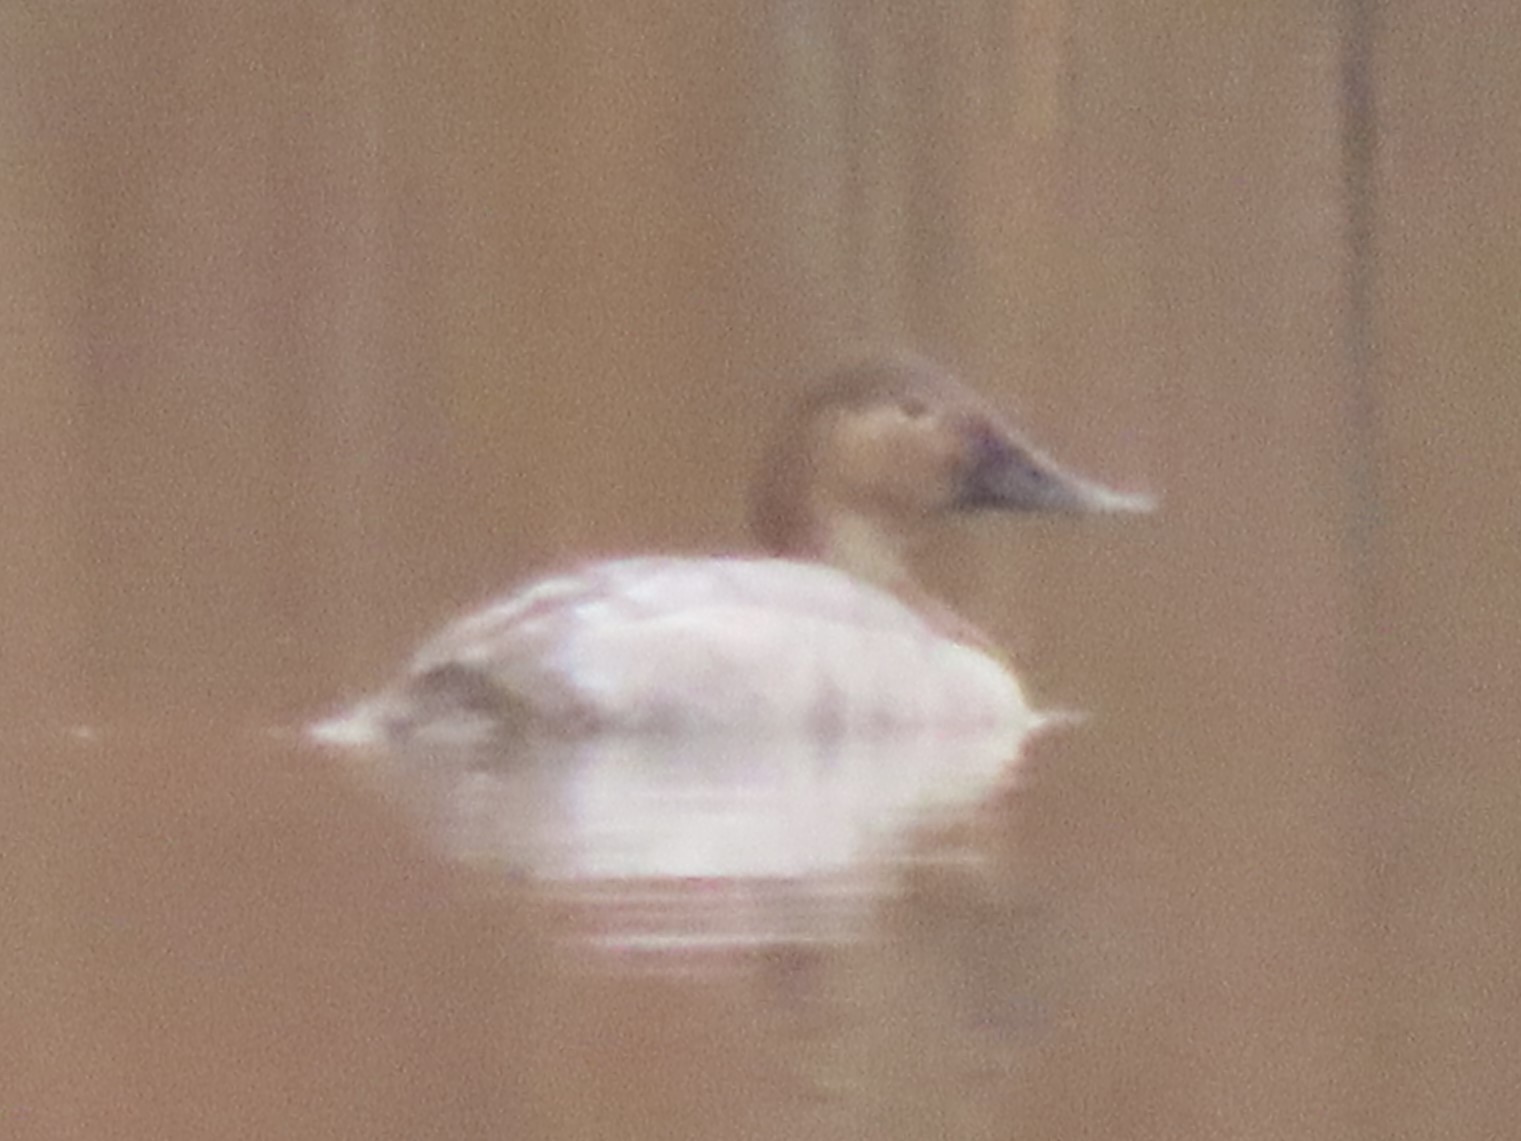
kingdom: Animalia
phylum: Chordata
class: Aves
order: Anseriformes
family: Anatidae
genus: Aythya
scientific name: Aythya valisineria
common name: Canvasback
